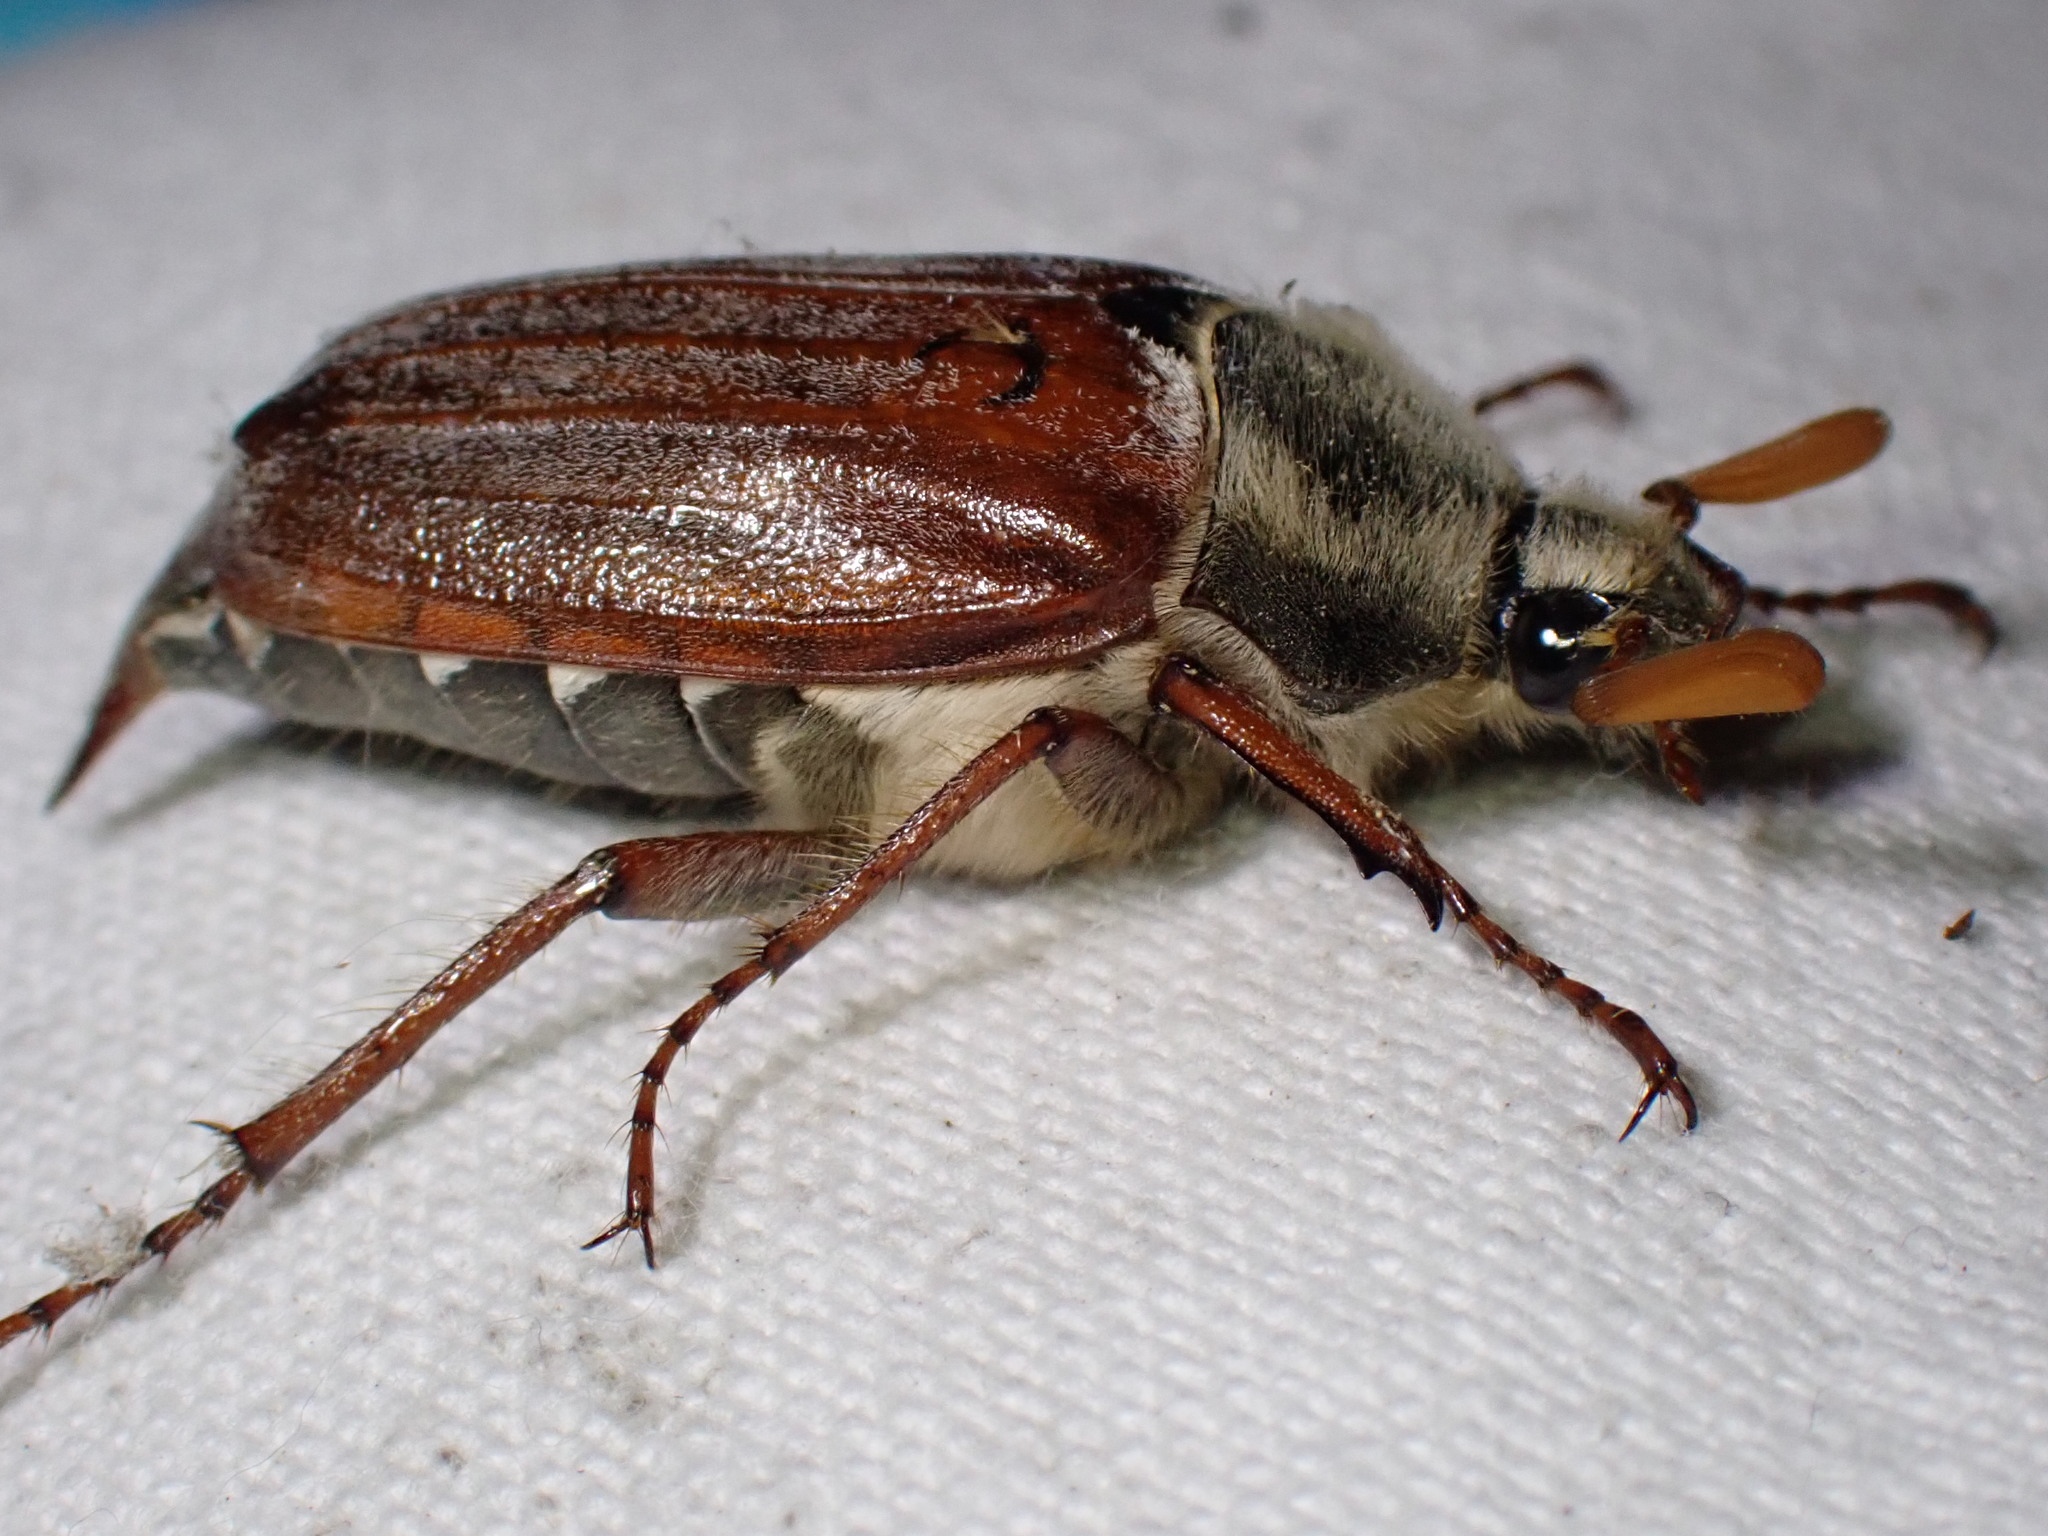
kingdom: Animalia
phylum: Arthropoda
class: Insecta
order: Coleoptera
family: Scarabaeidae
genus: Melolontha
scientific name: Melolontha melolontha
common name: Cockchafer maybeetle
